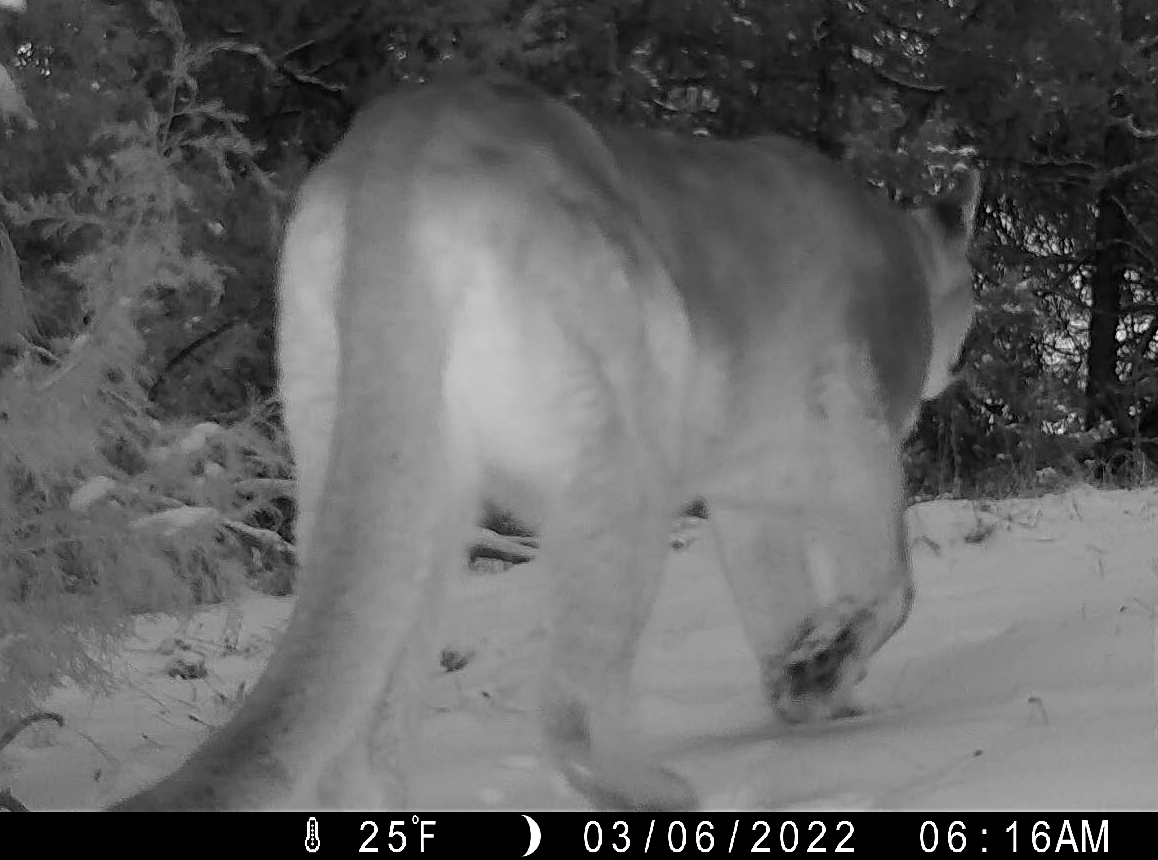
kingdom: Animalia
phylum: Chordata
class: Mammalia
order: Carnivora
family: Felidae
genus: Puma
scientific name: Puma concolor
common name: Puma
